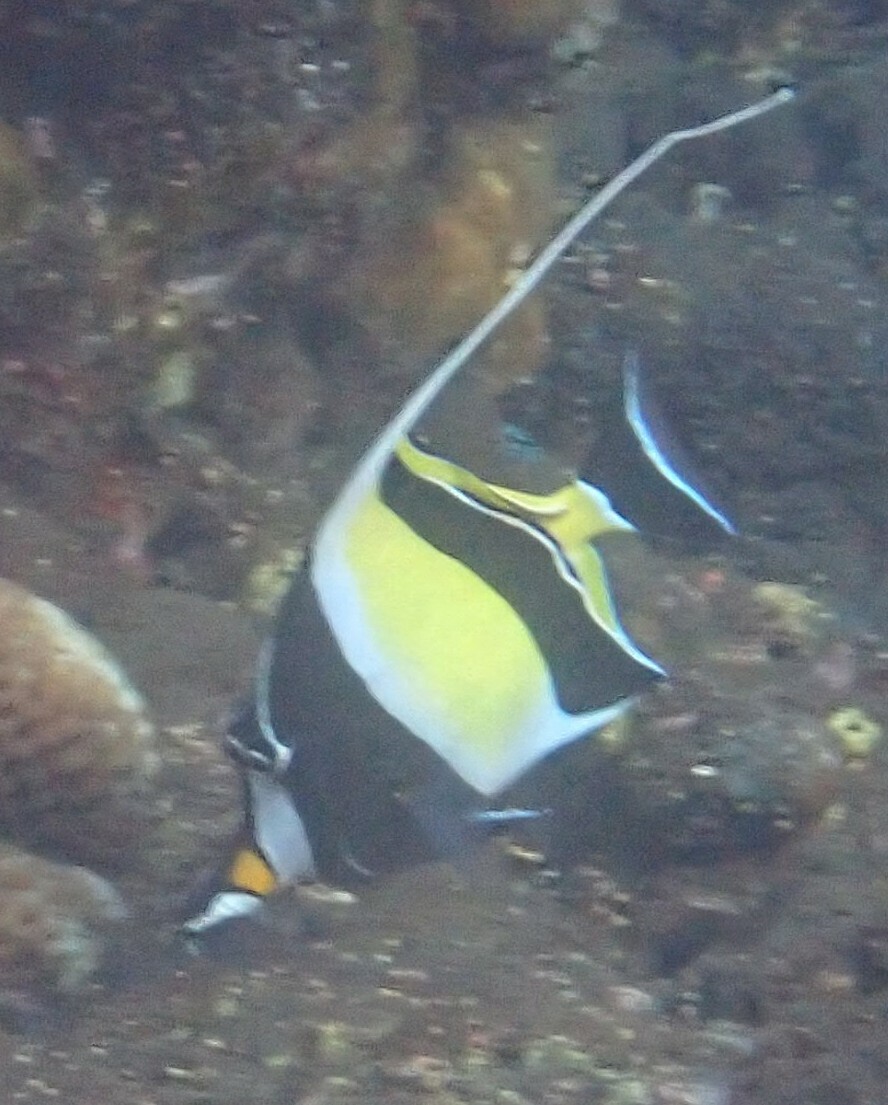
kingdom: Animalia
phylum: Chordata
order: Perciformes
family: Zanclidae
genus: Zanclus
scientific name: Zanclus cornutus
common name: Moorish idol
